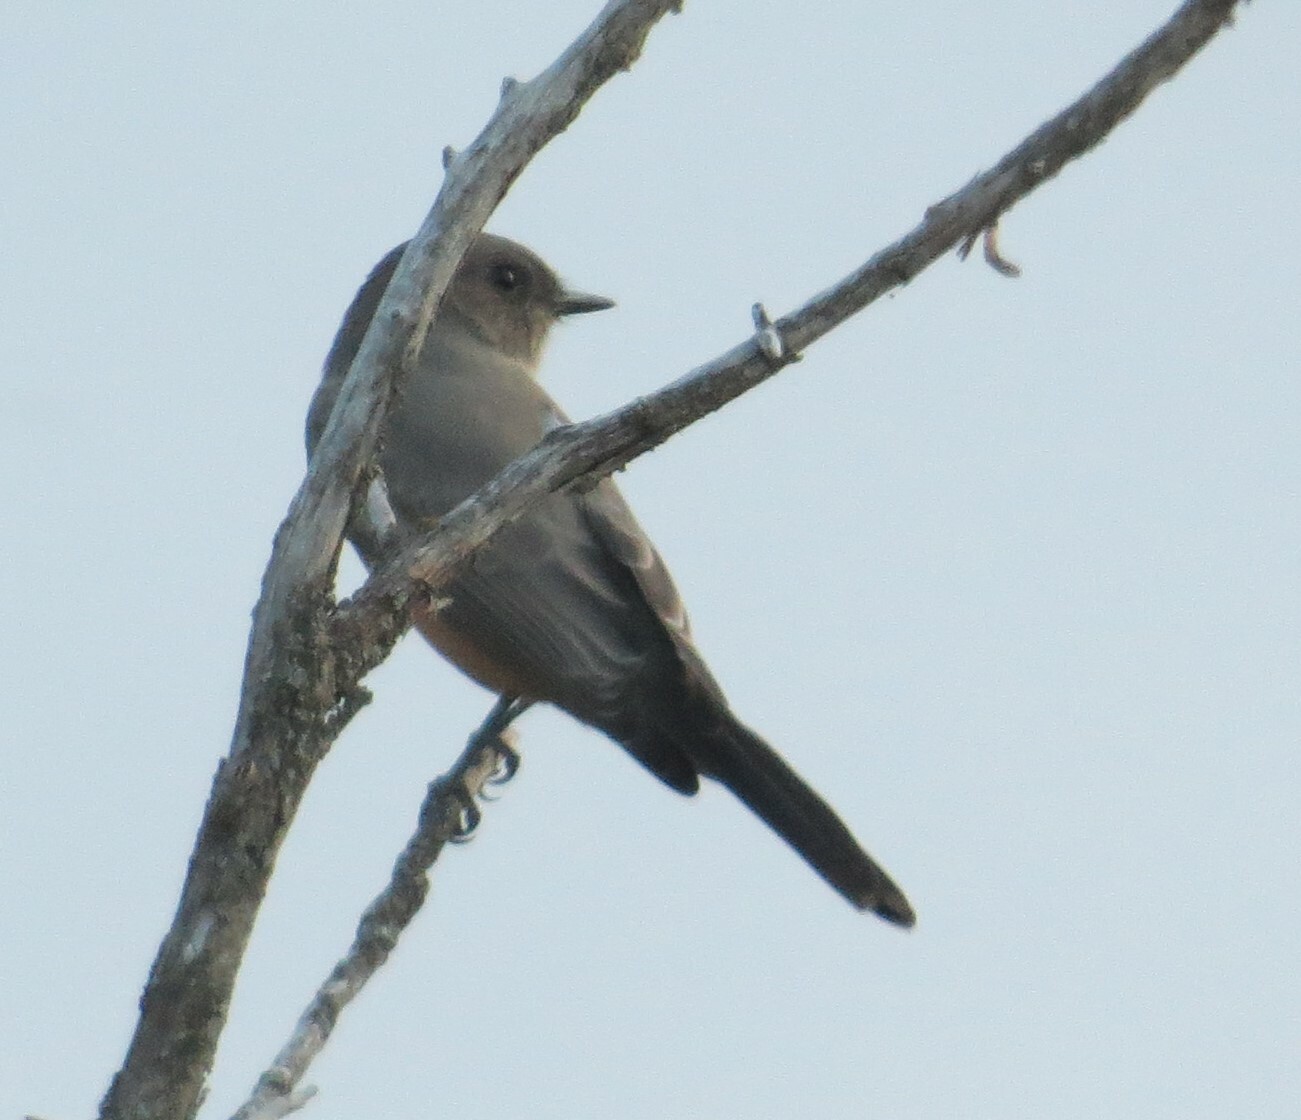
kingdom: Animalia
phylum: Chordata
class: Aves
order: Passeriformes
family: Tyrannidae
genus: Sayornis
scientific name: Sayornis saya
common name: Say's phoebe
